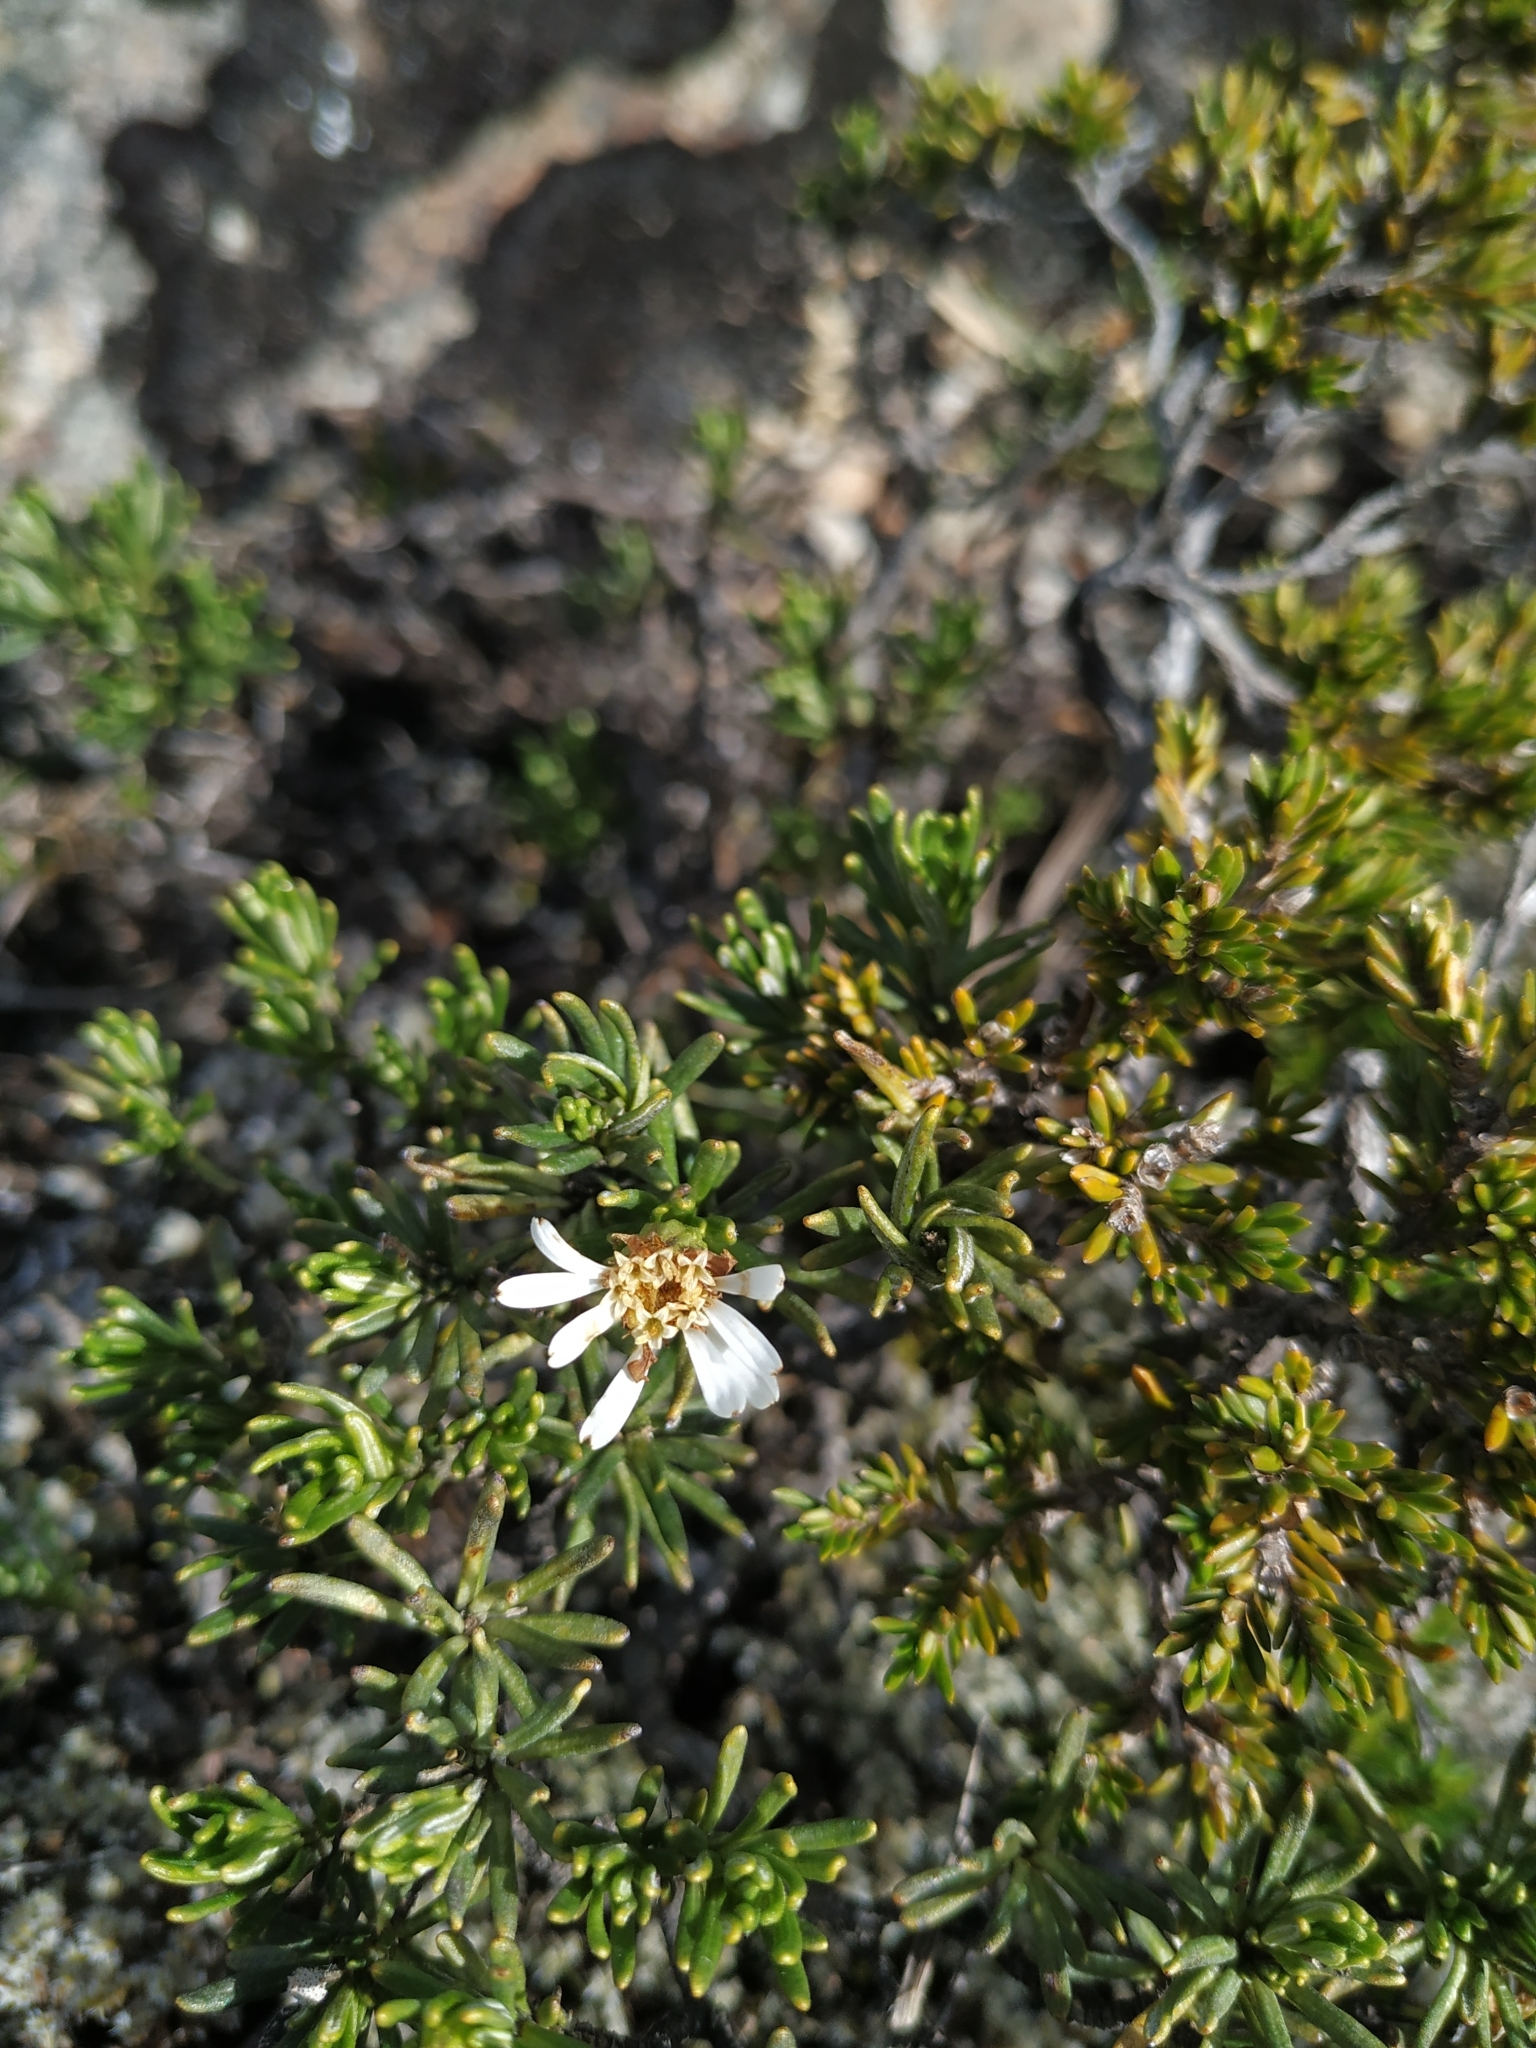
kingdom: Plantae
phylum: Tracheophyta
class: Magnoliopsida
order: Asterales
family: Asteraceae
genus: Linochilus
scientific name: Linochilus glutinosus
